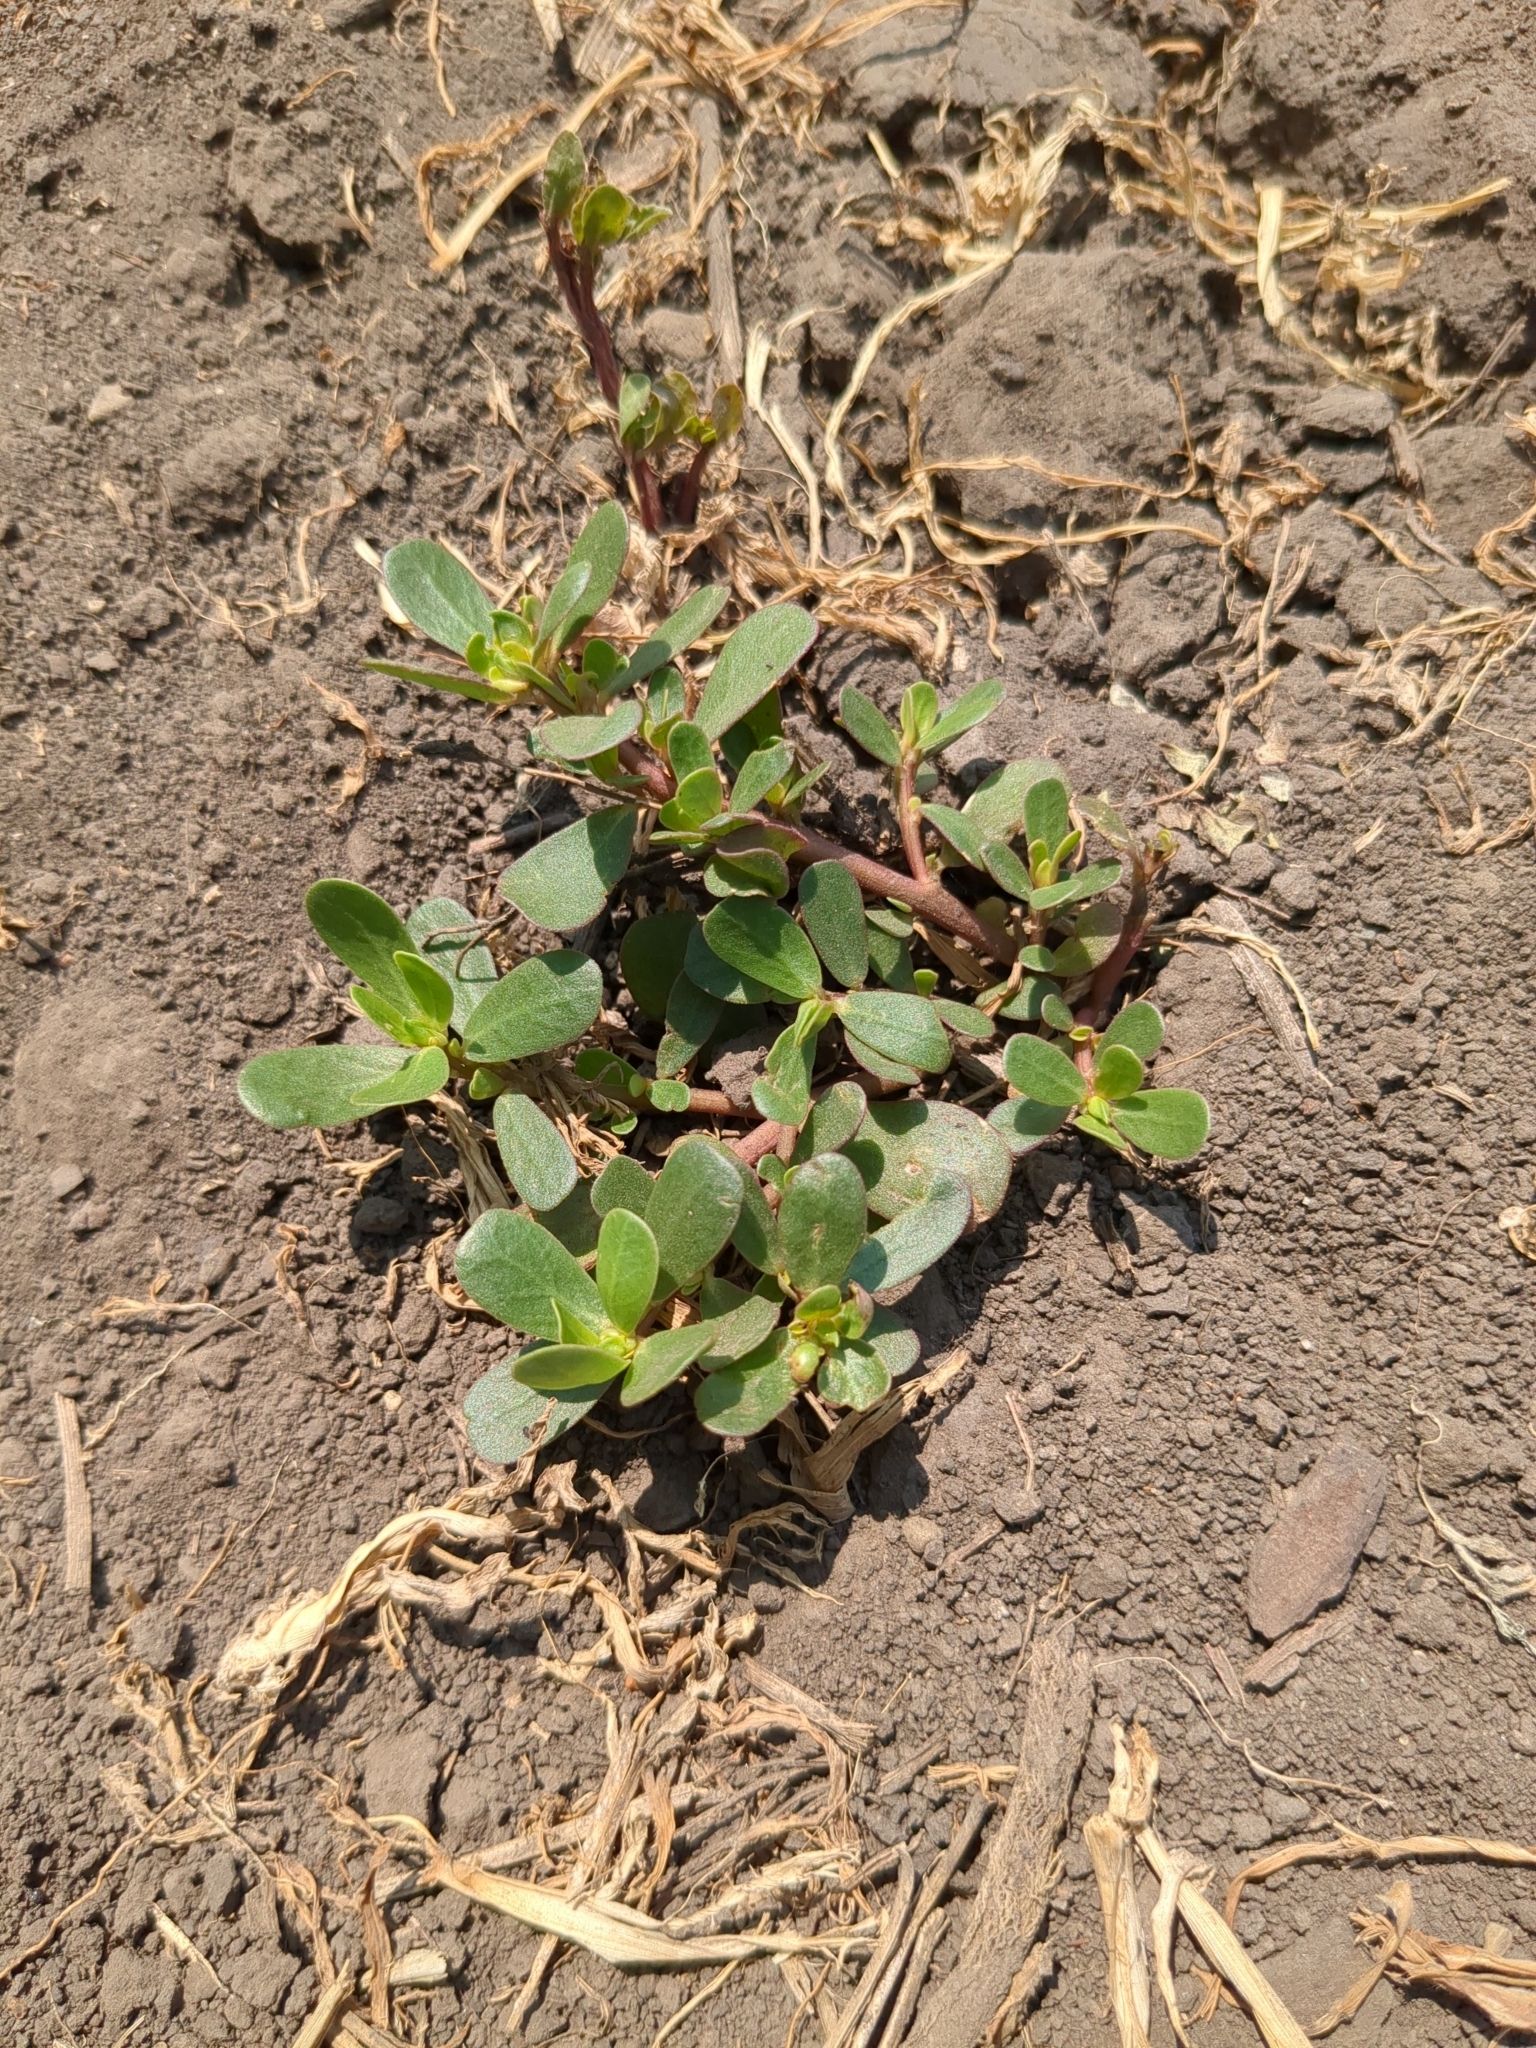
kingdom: Plantae
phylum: Tracheophyta
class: Magnoliopsida
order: Caryophyllales
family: Portulacaceae
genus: Portulaca
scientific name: Portulaca oleracea
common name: Common purslane
